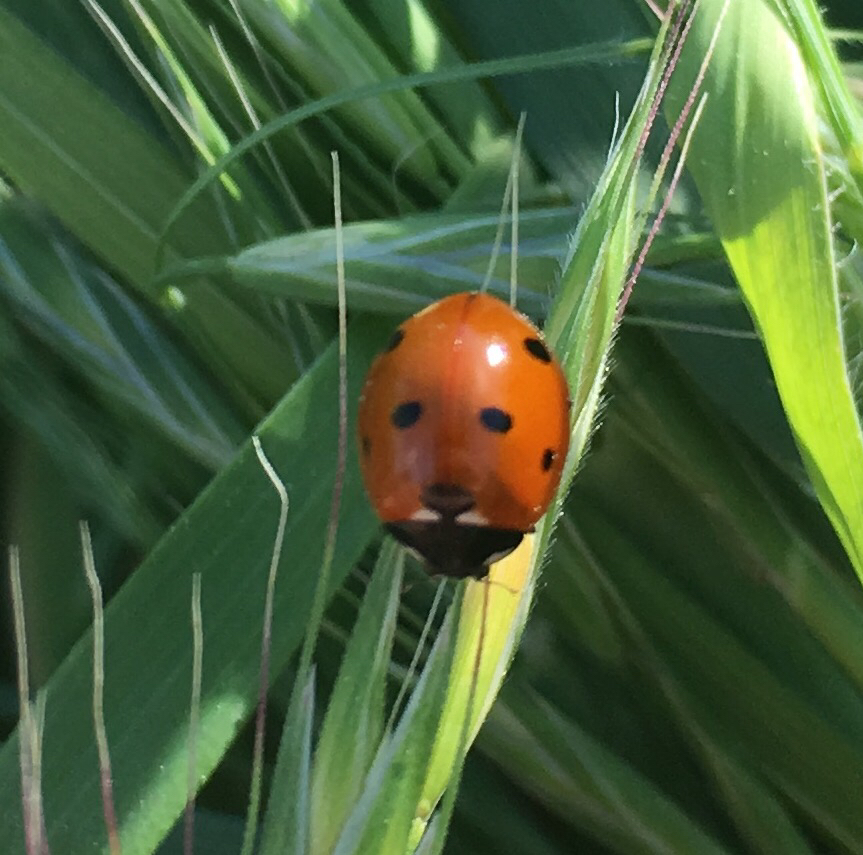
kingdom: Animalia
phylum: Arthropoda
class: Insecta
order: Coleoptera
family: Coccinellidae
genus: Coccinella
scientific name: Coccinella septempunctata
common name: Sevenspotted lady beetle
